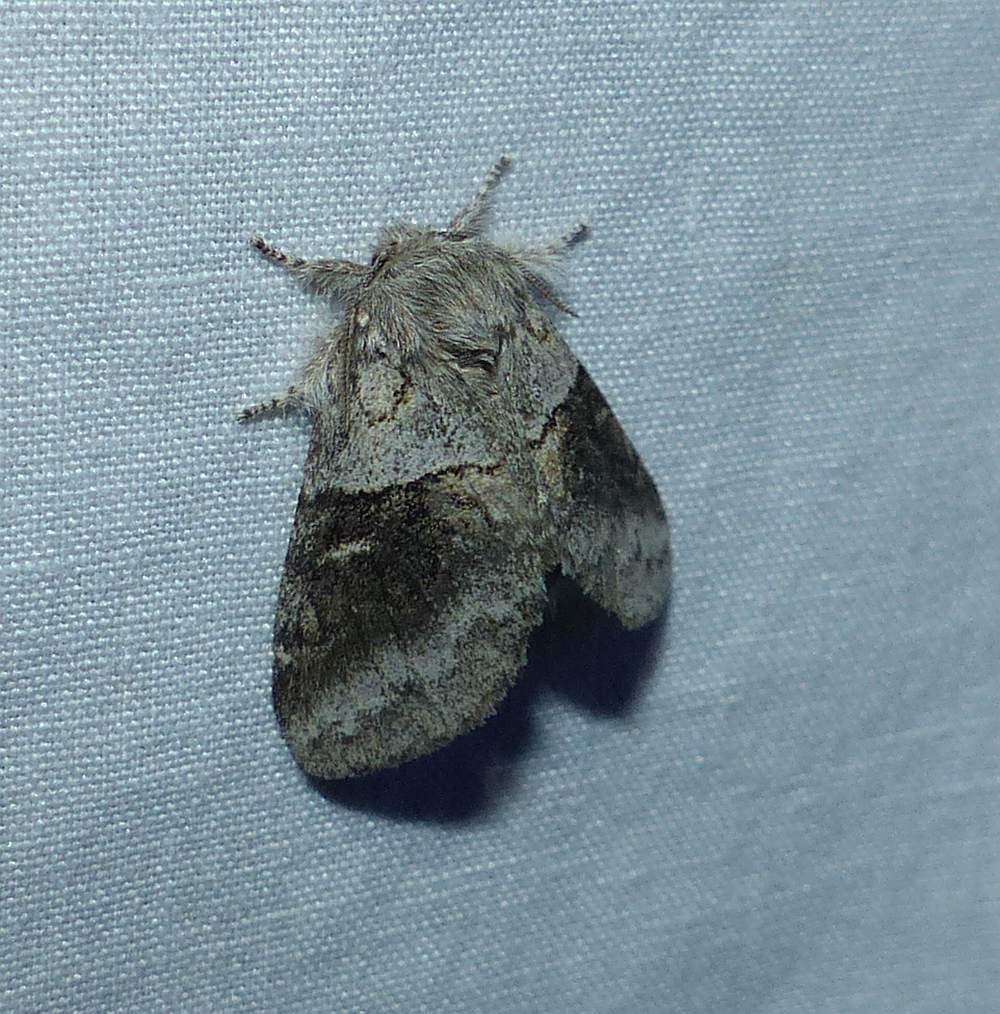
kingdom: Animalia
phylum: Arthropoda
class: Insecta
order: Lepidoptera
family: Notodontidae
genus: Gluphisia
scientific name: Gluphisia septentrionis
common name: Common gluphisia
